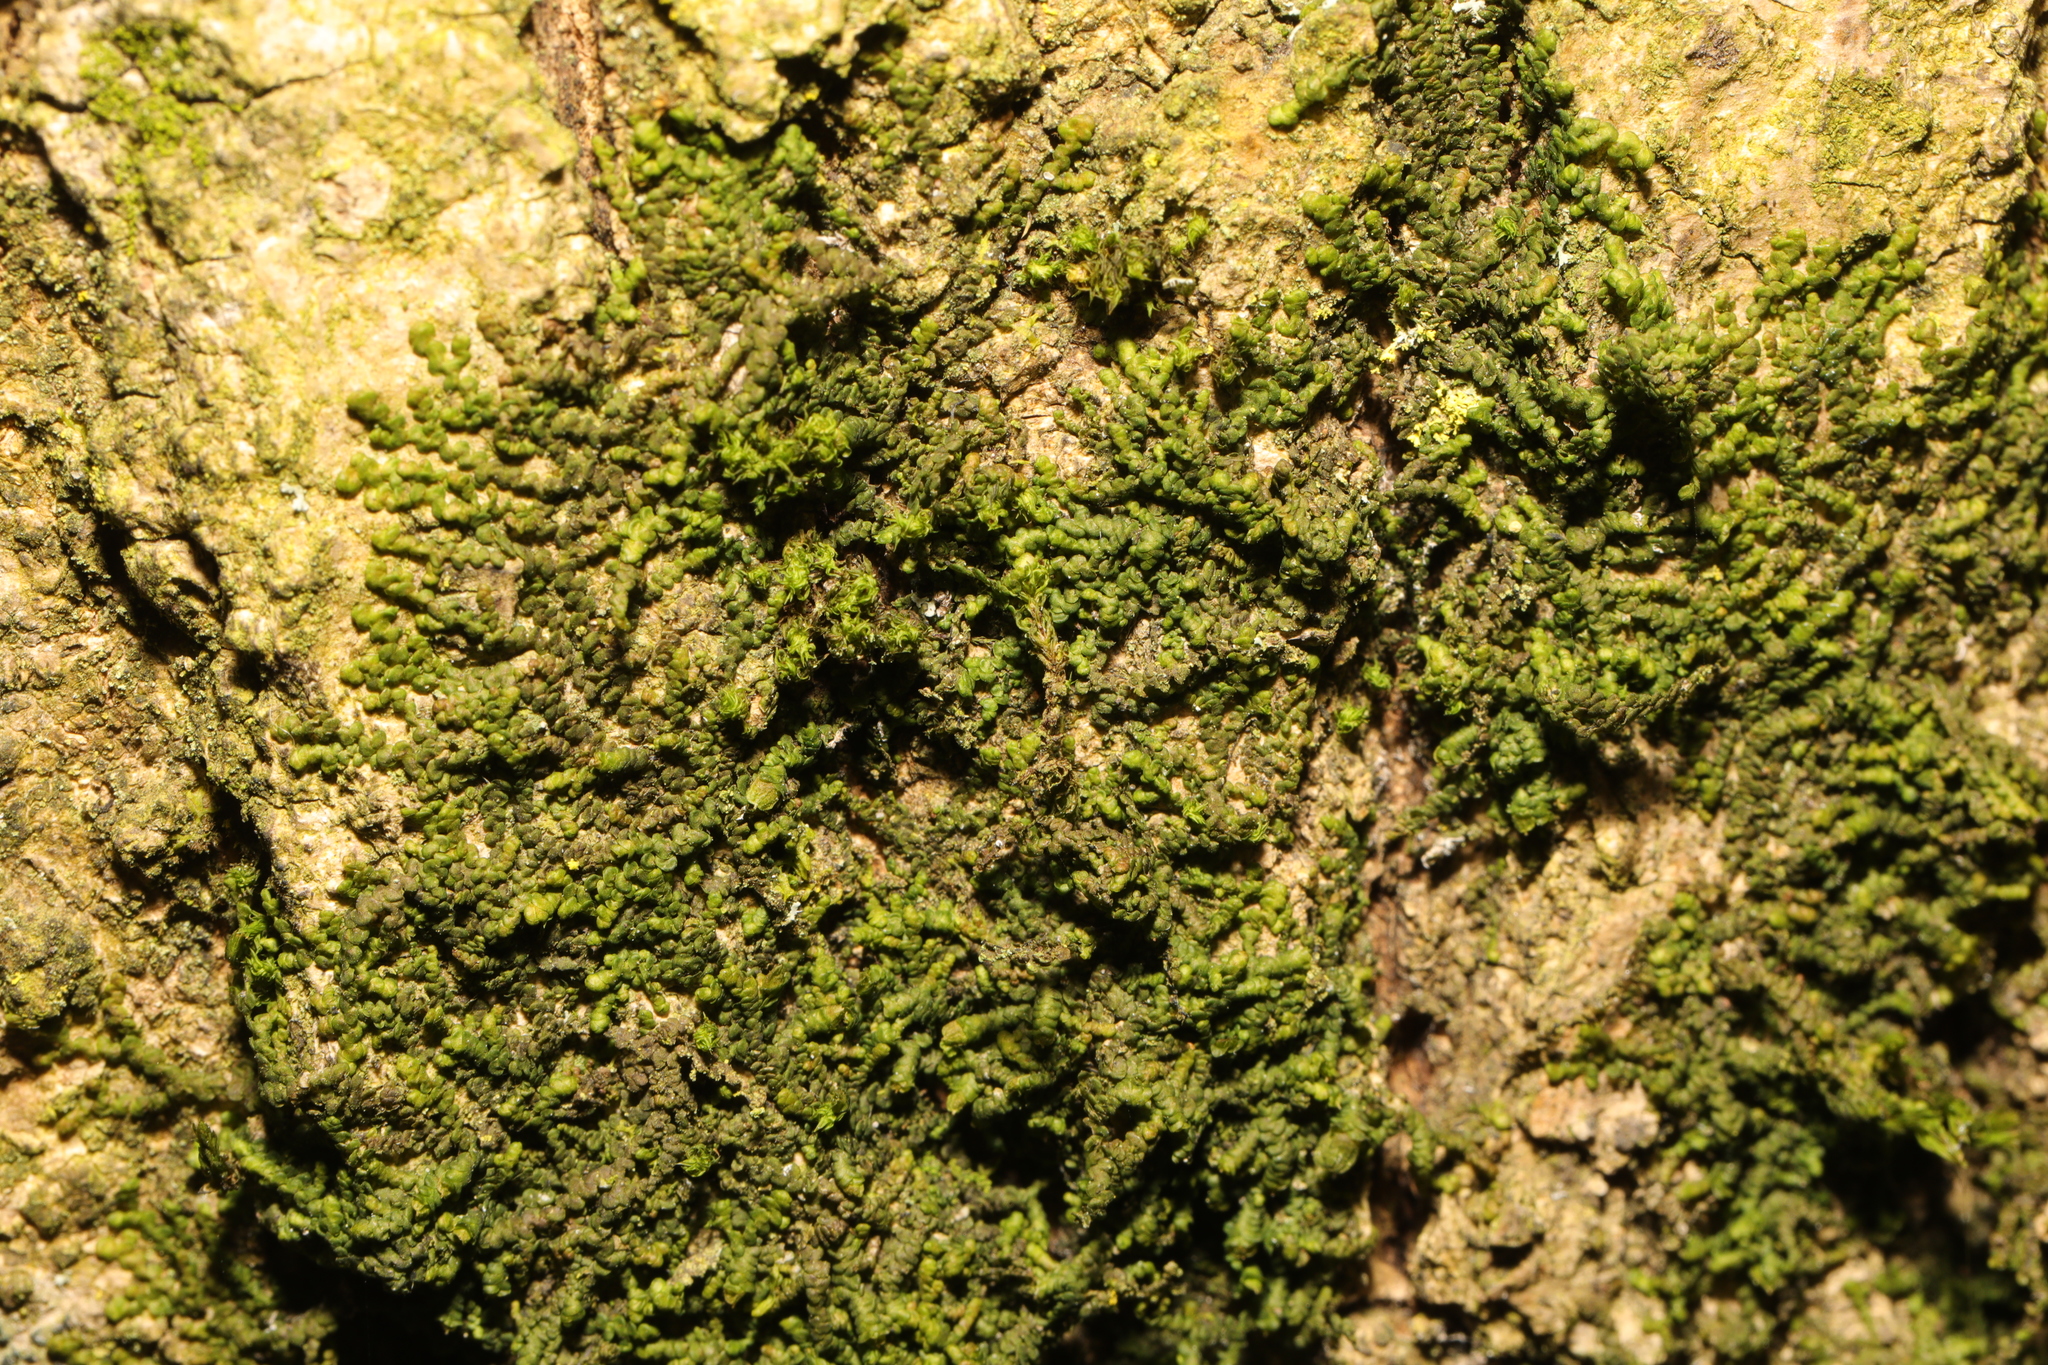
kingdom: Plantae
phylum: Marchantiophyta
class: Jungermanniopsida
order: Porellales
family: Frullaniaceae
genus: Frullania
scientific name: Frullania dilatata
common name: Dilated scalewort
